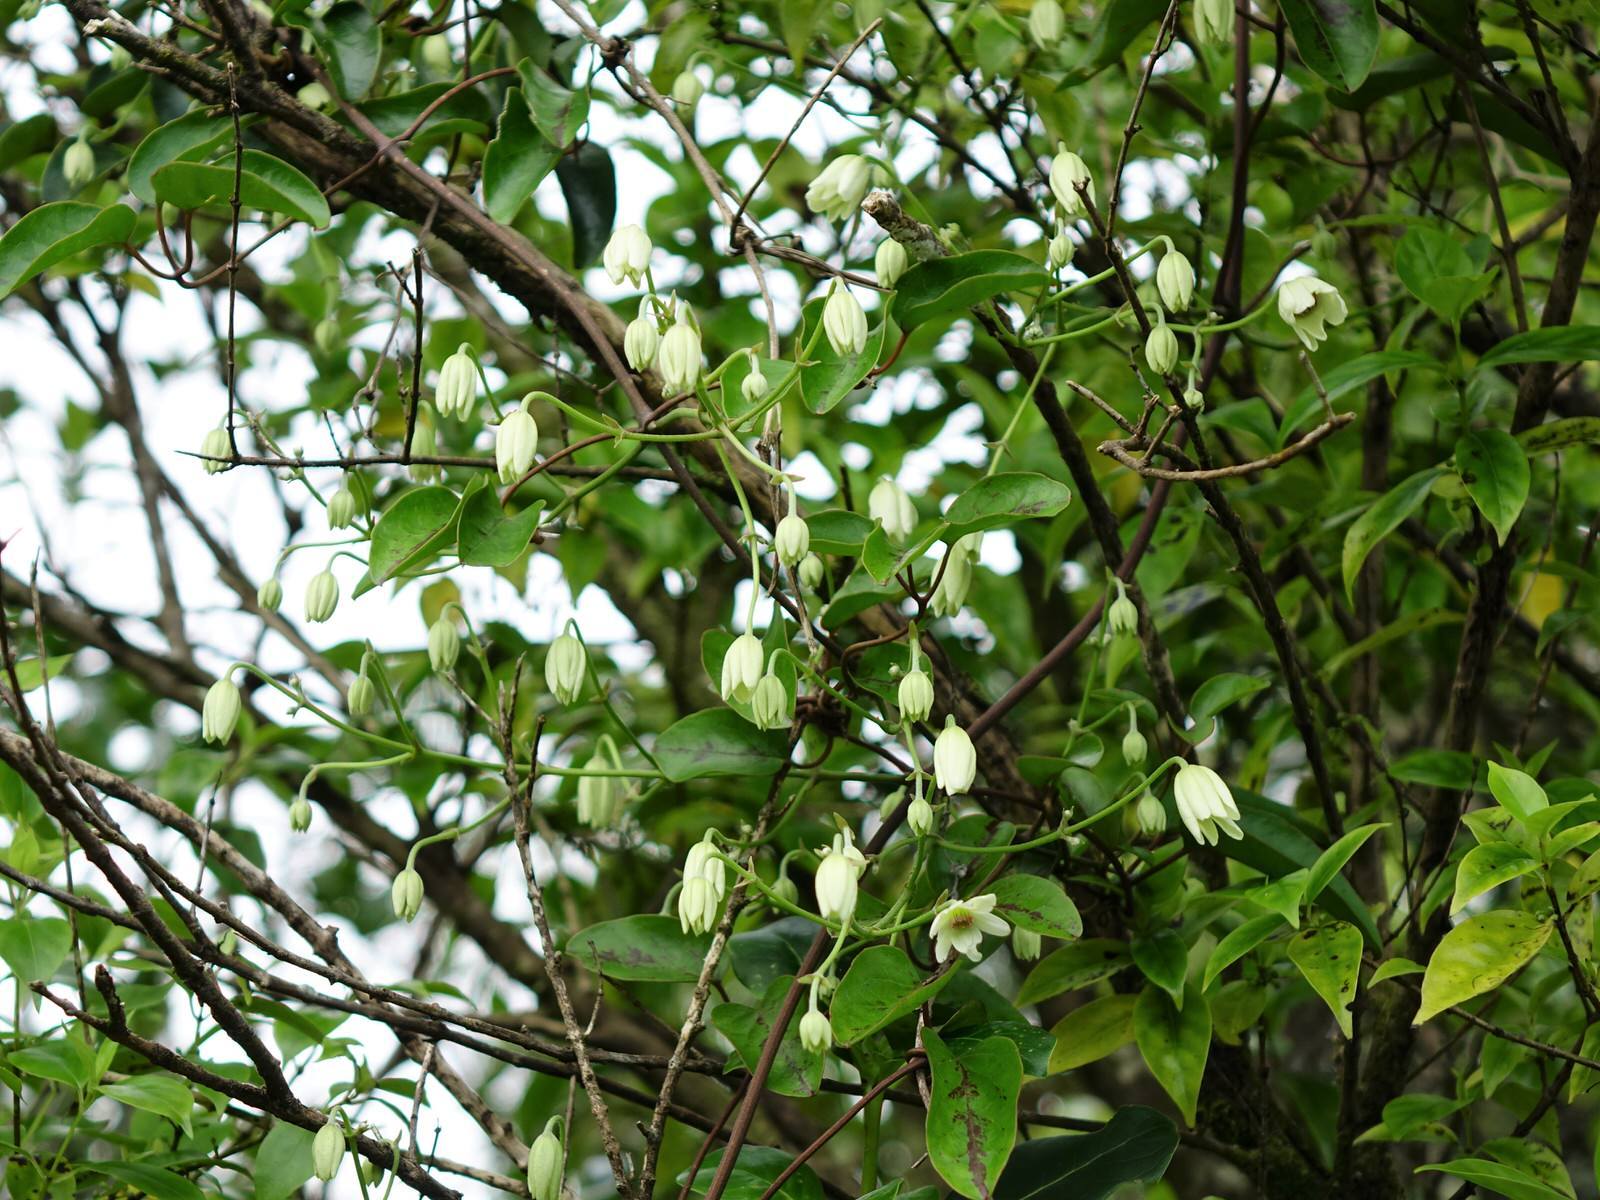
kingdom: Plantae
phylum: Tracheophyta
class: Magnoliopsida
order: Ranunculales
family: Ranunculaceae
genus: Clematis
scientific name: Clematis paniculata
